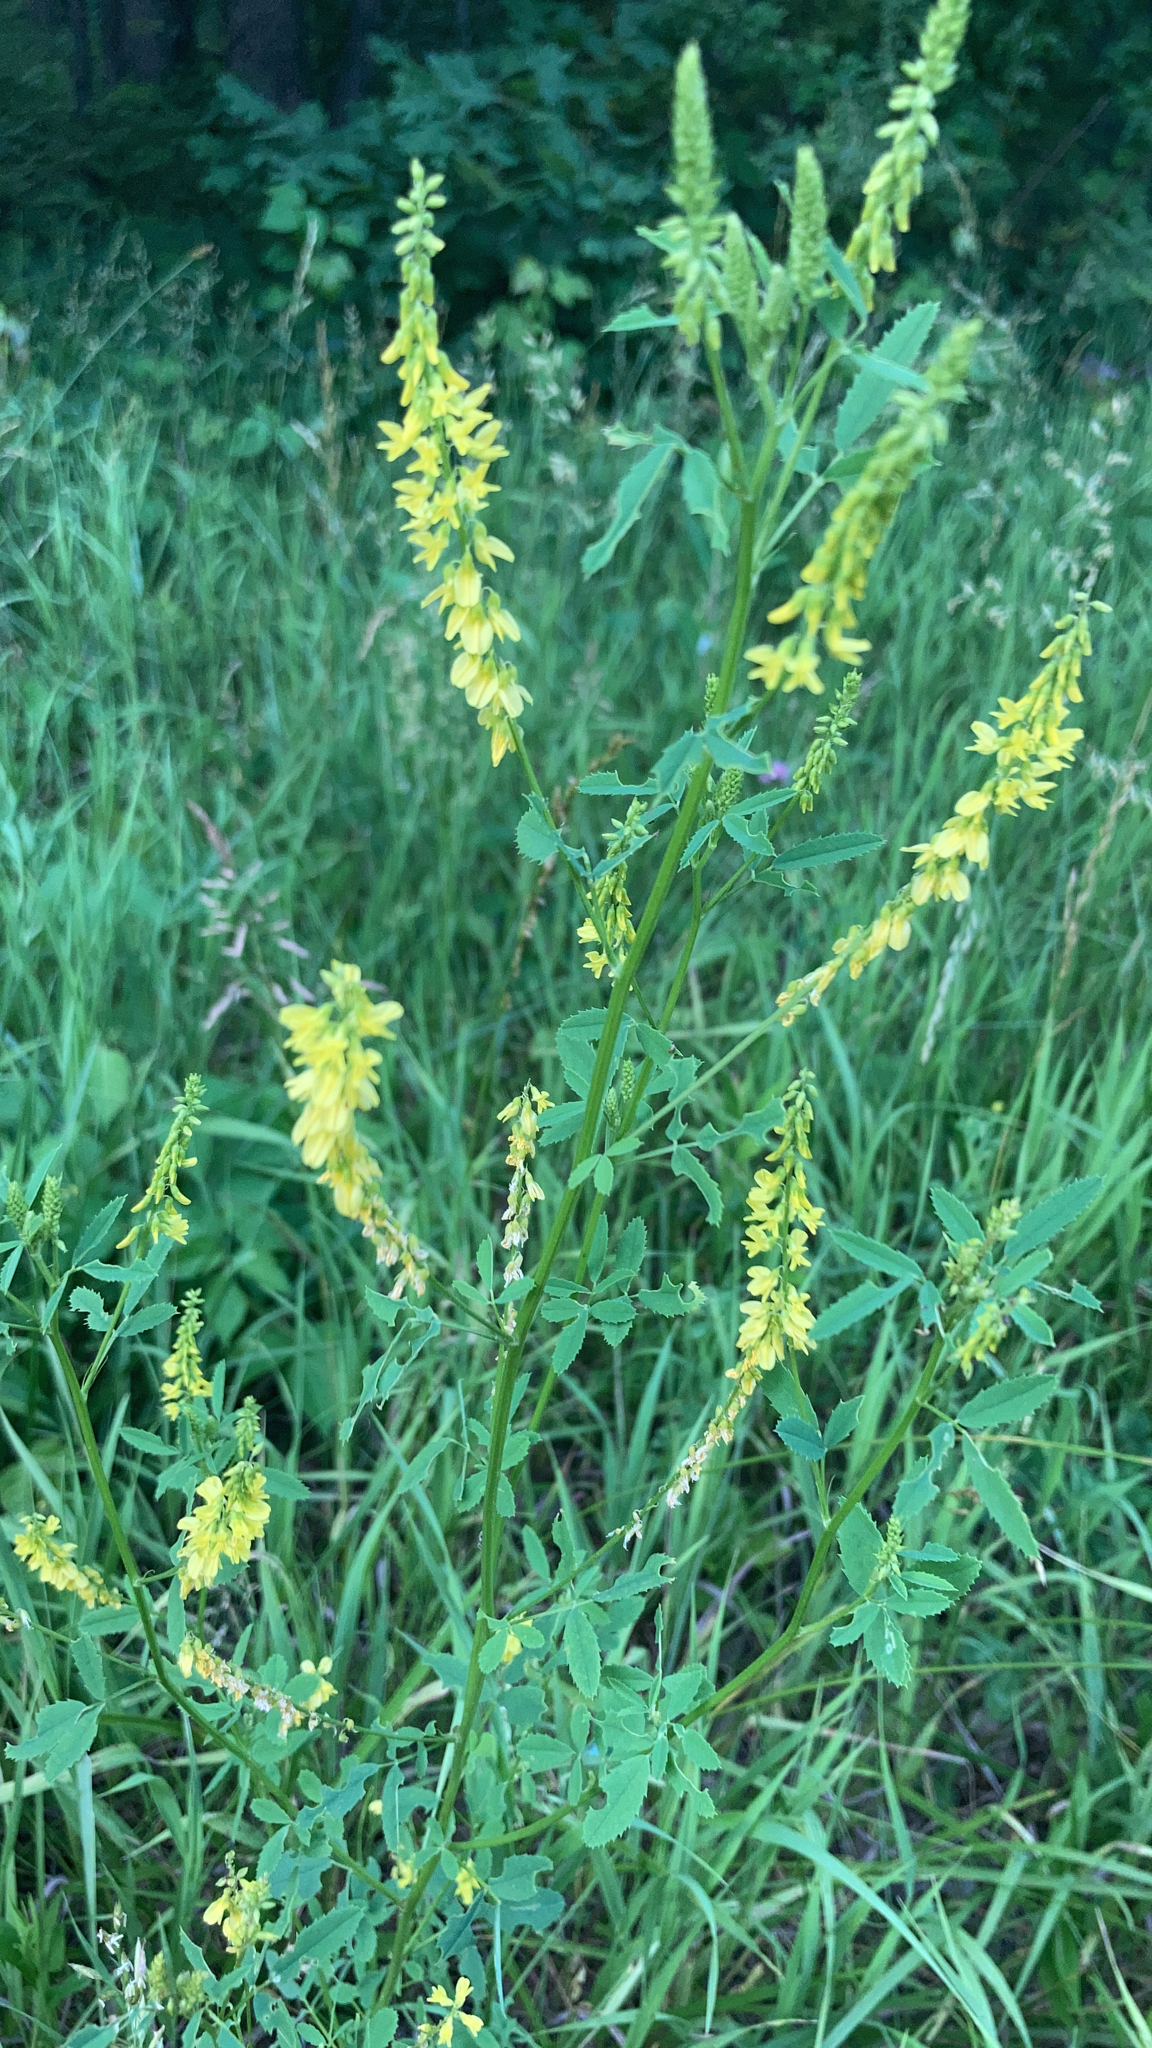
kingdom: Plantae
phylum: Tracheophyta
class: Magnoliopsida
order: Fabales
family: Fabaceae
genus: Melilotus
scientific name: Melilotus officinalis
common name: Sweetclover
